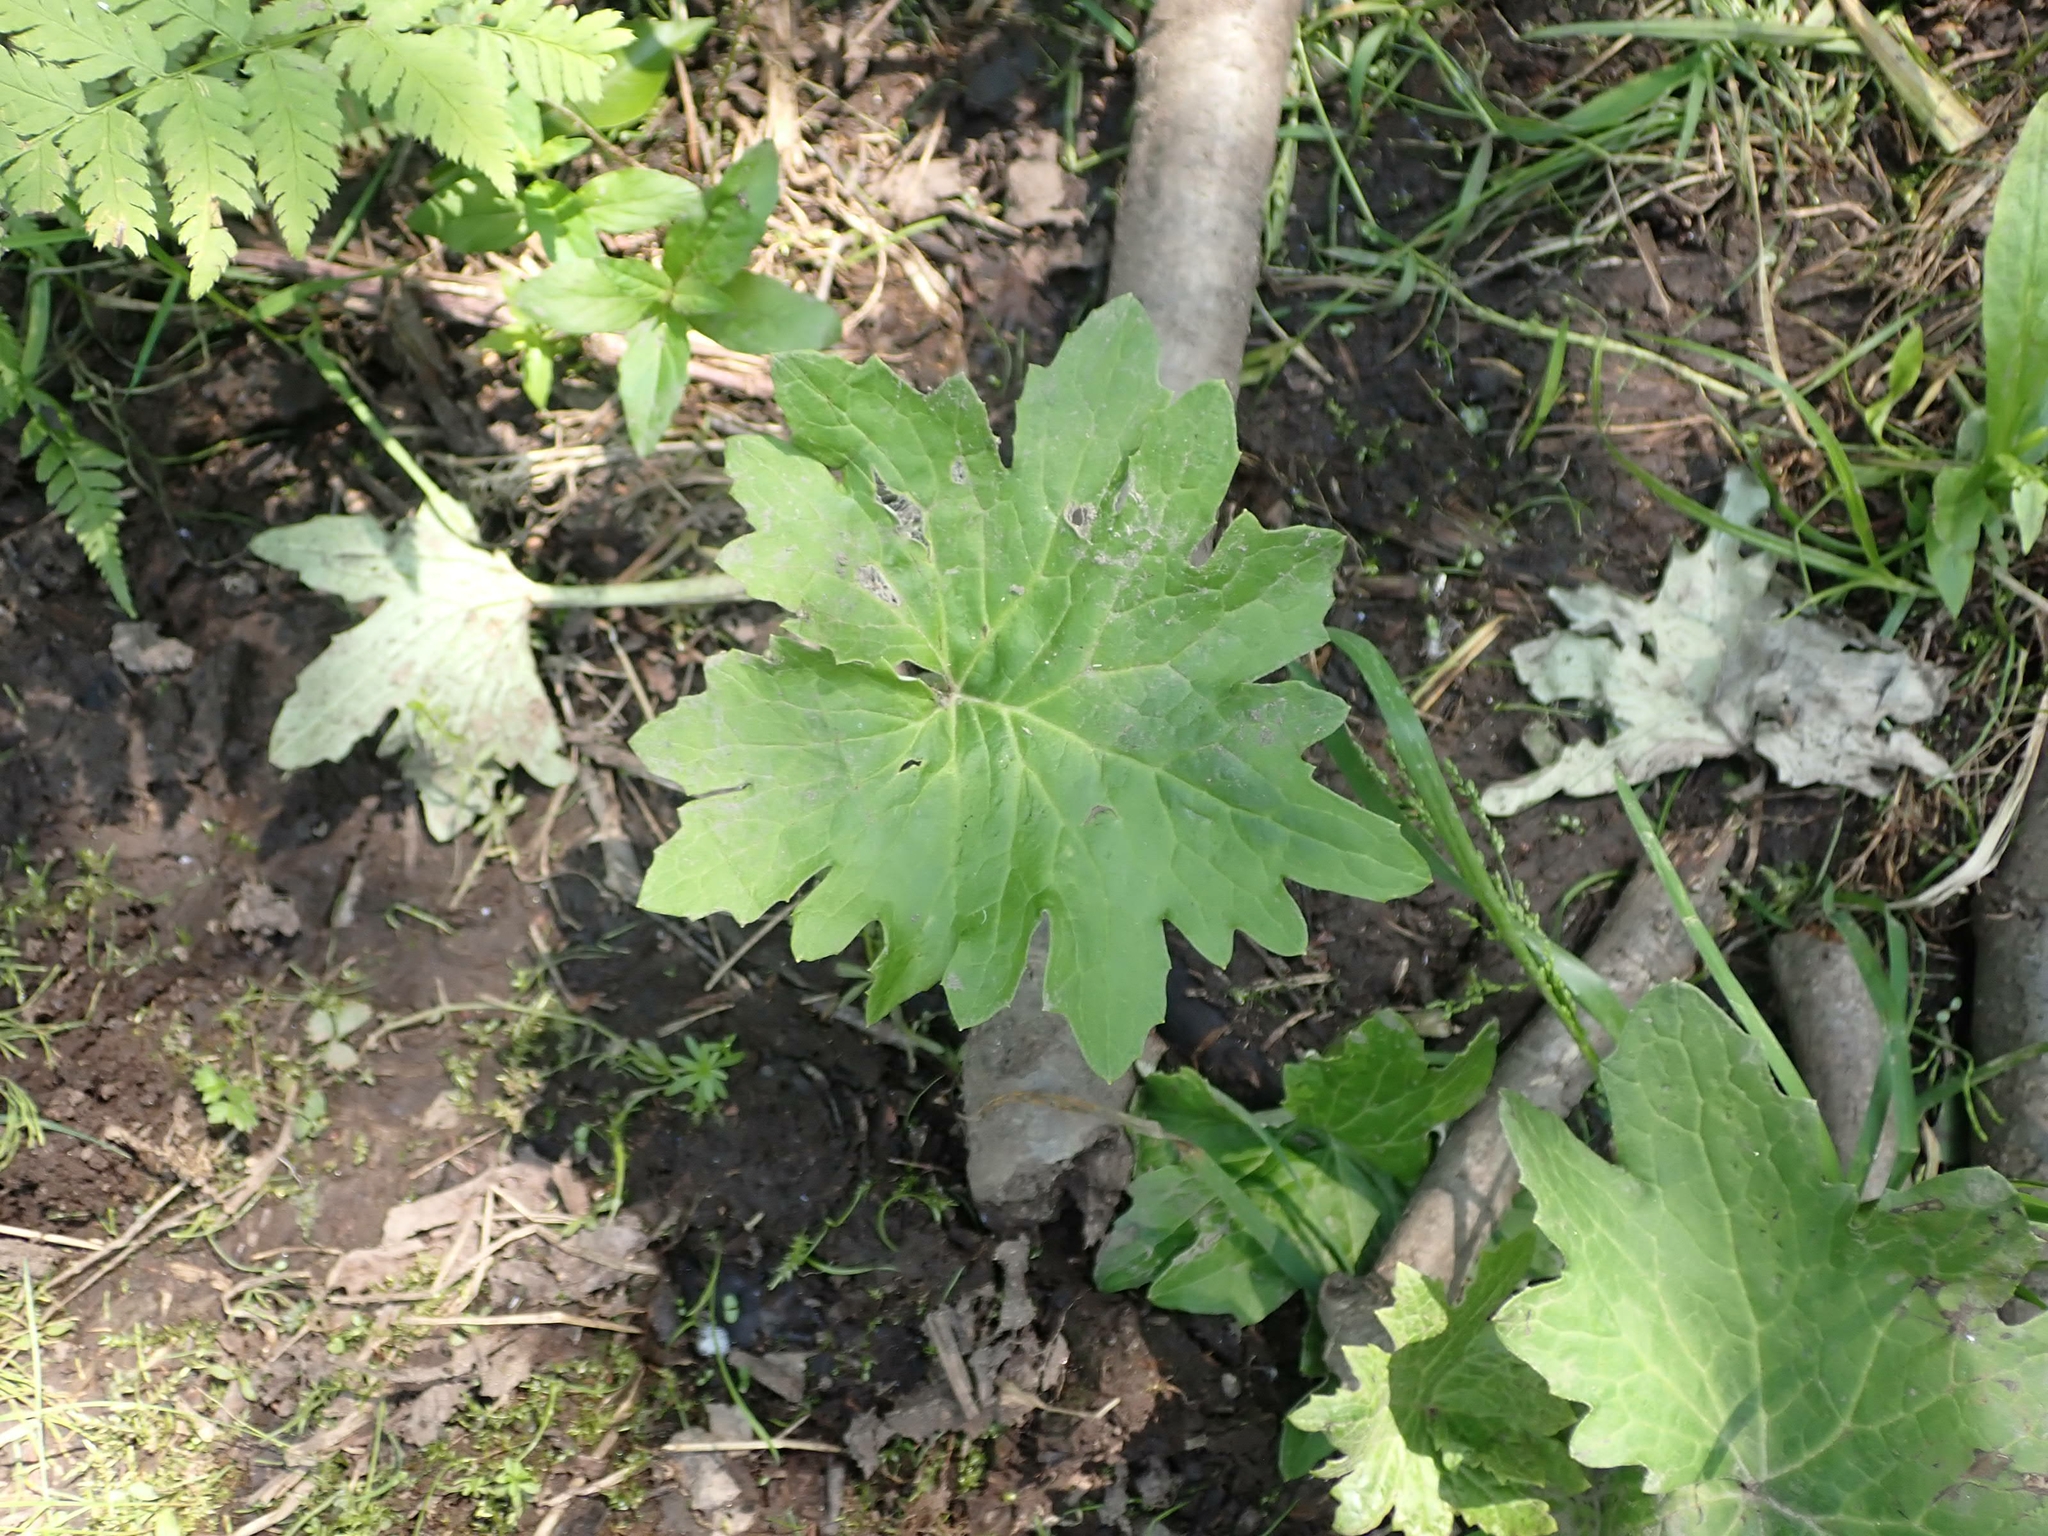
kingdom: Plantae
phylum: Tracheophyta
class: Magnoliopsida
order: Asterales
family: Asteraceae
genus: Petasites
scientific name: Petasites frigidus
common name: Arctic butterbur
